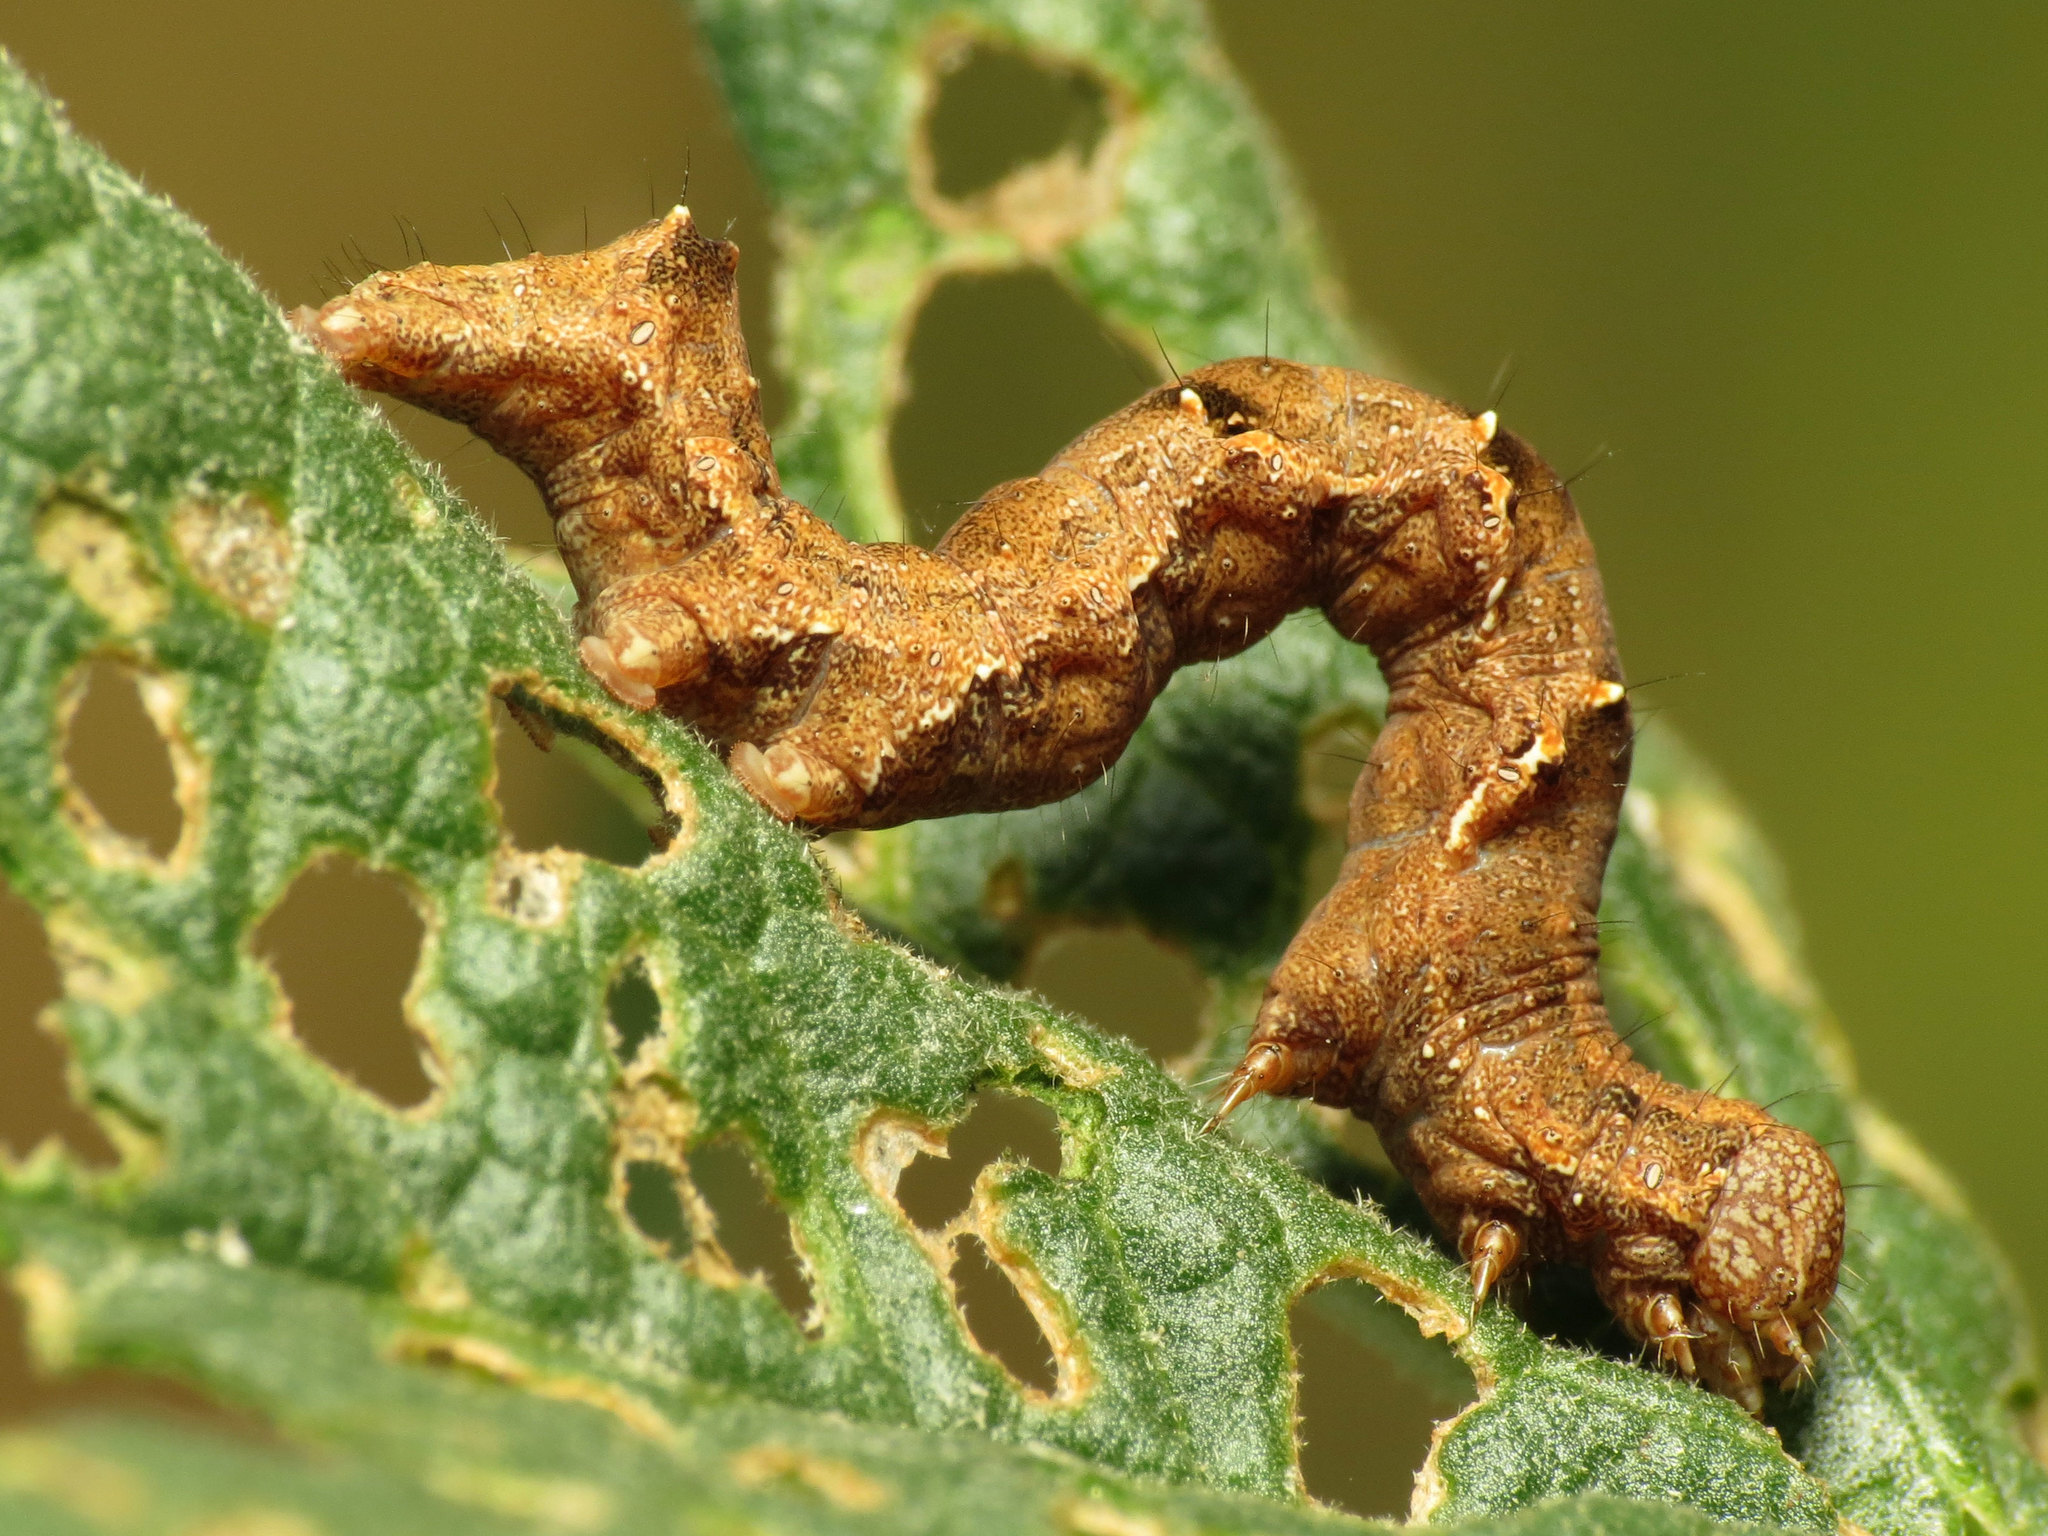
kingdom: Animalia
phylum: Arthropoda
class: Insecta
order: Lepidoptera
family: Noctuidae
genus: Acontia
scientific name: Acontia lucida
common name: Pale shoulder
